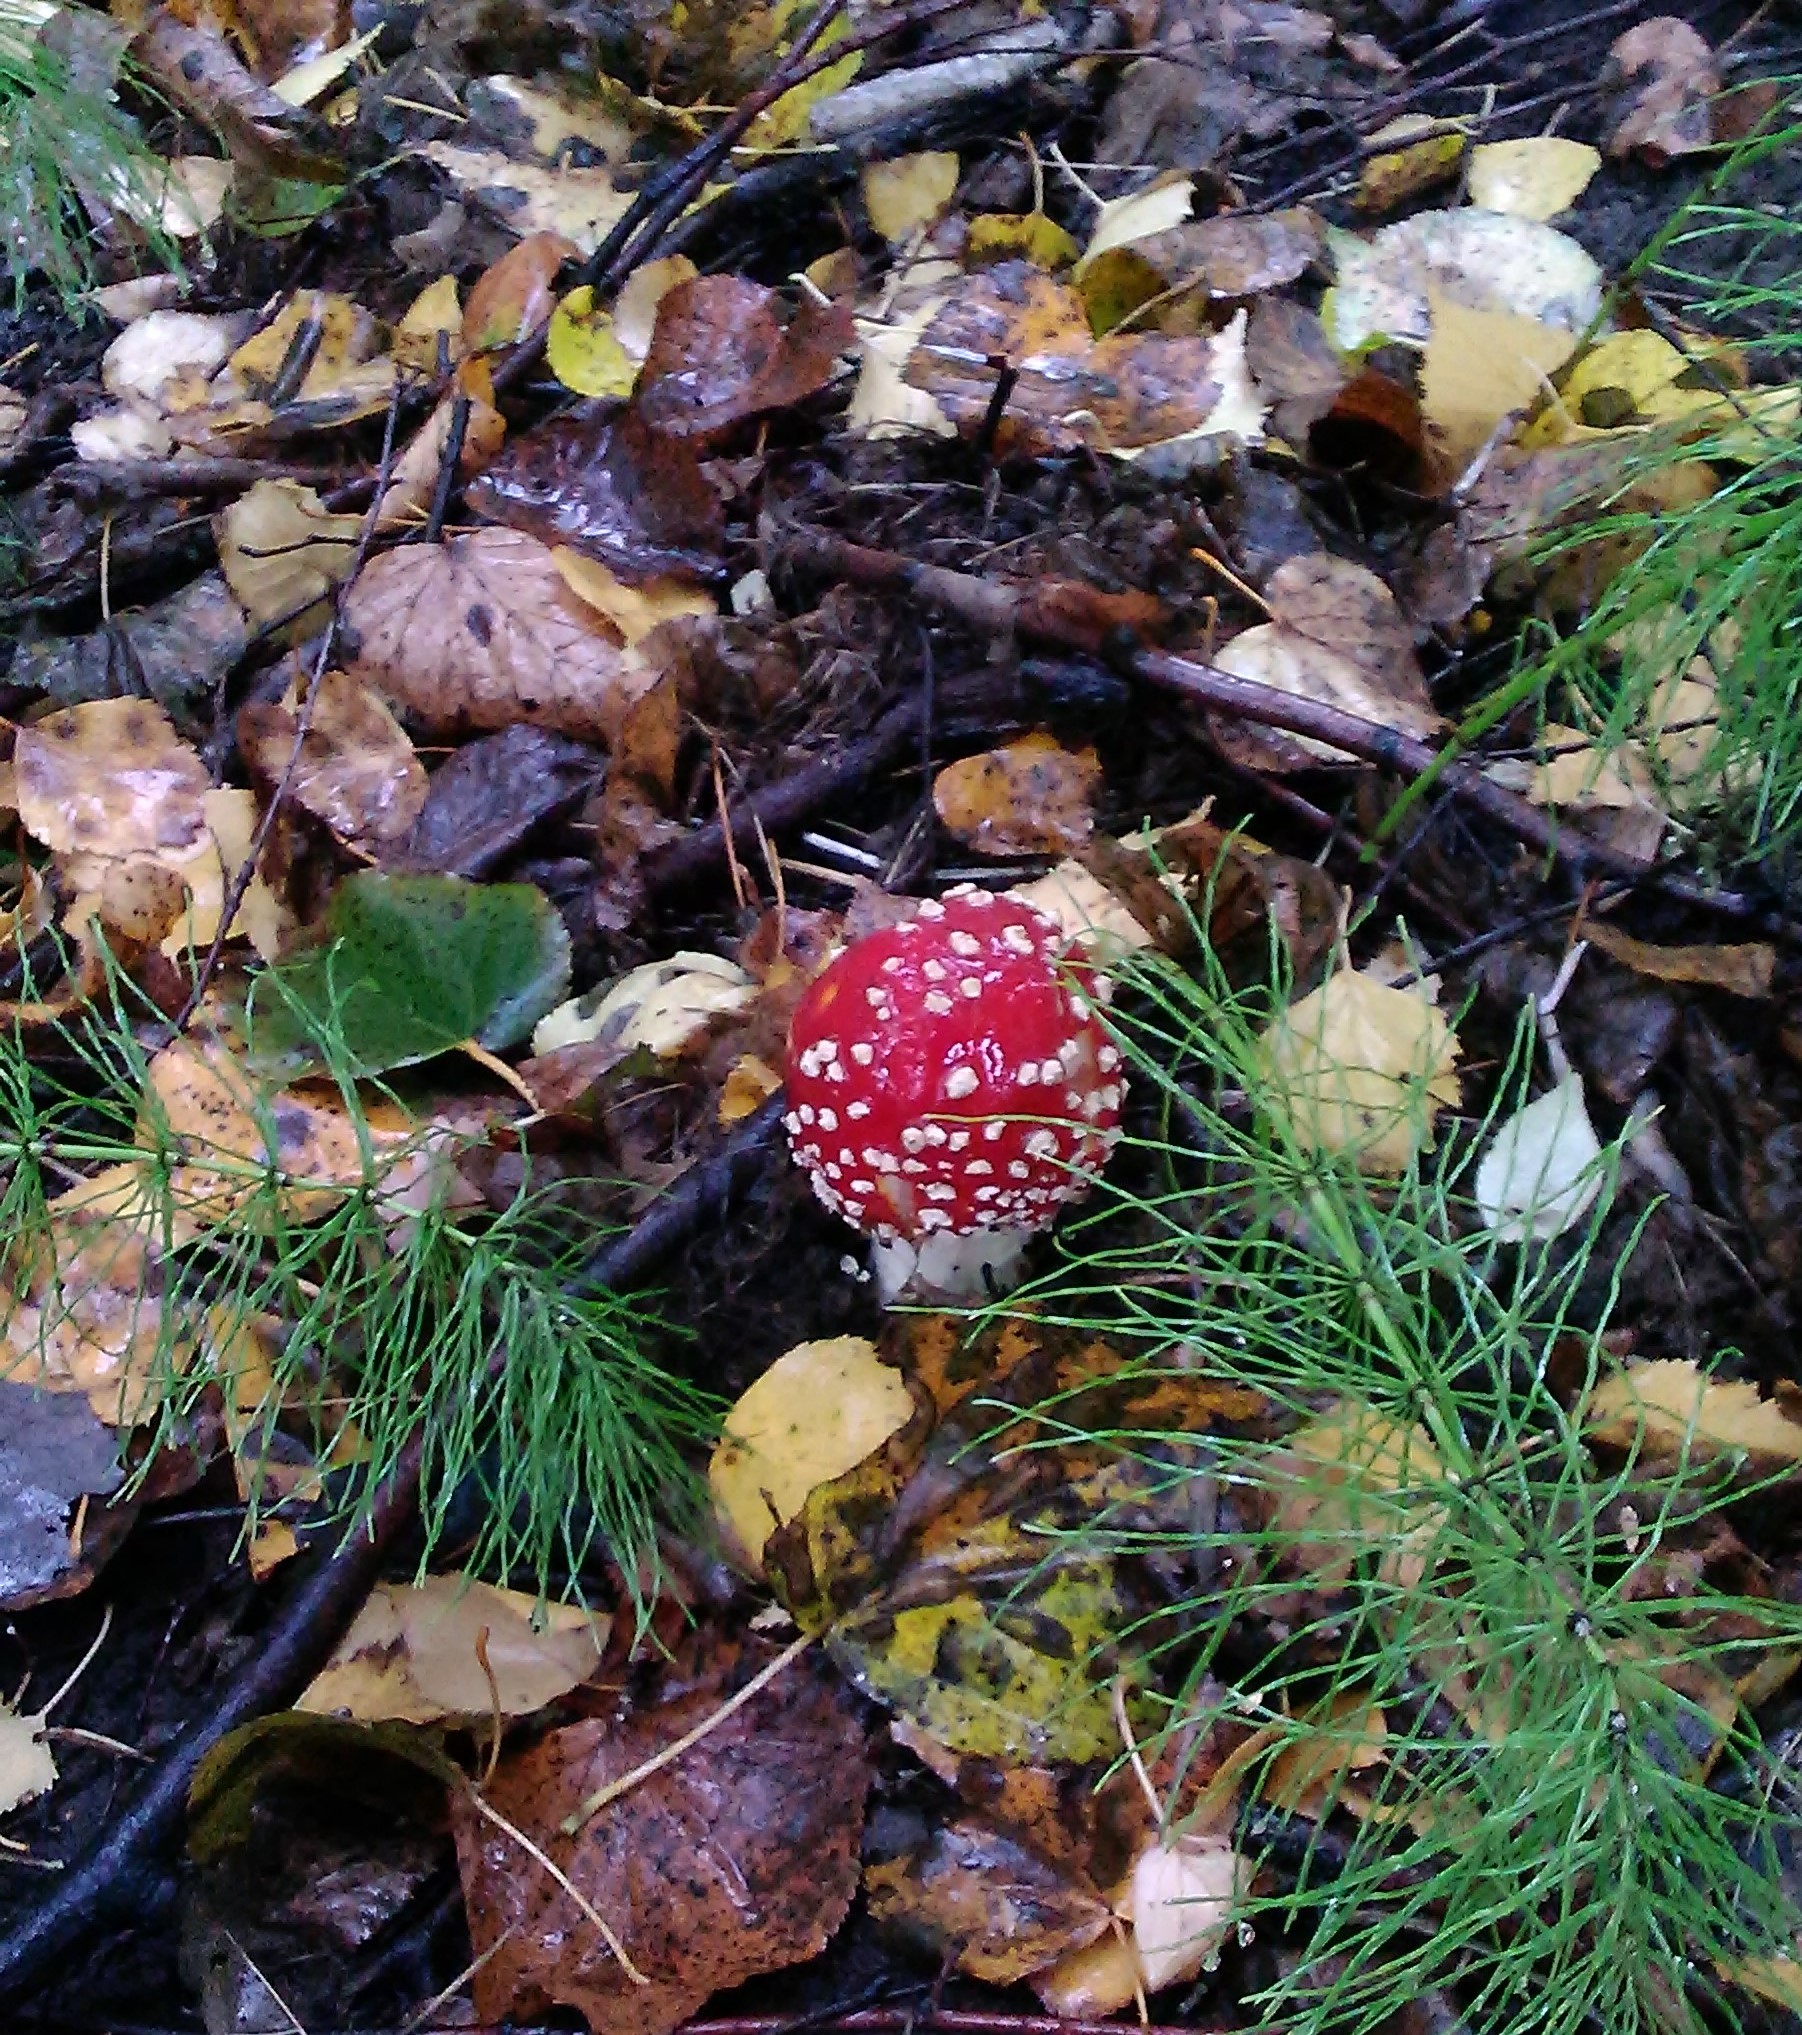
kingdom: Fungi
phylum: Basidiomycota
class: Agaricomycetes
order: Agaricales
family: Amanitaceae
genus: Amanita
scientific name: Amanita muscaria
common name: Fly agaric
